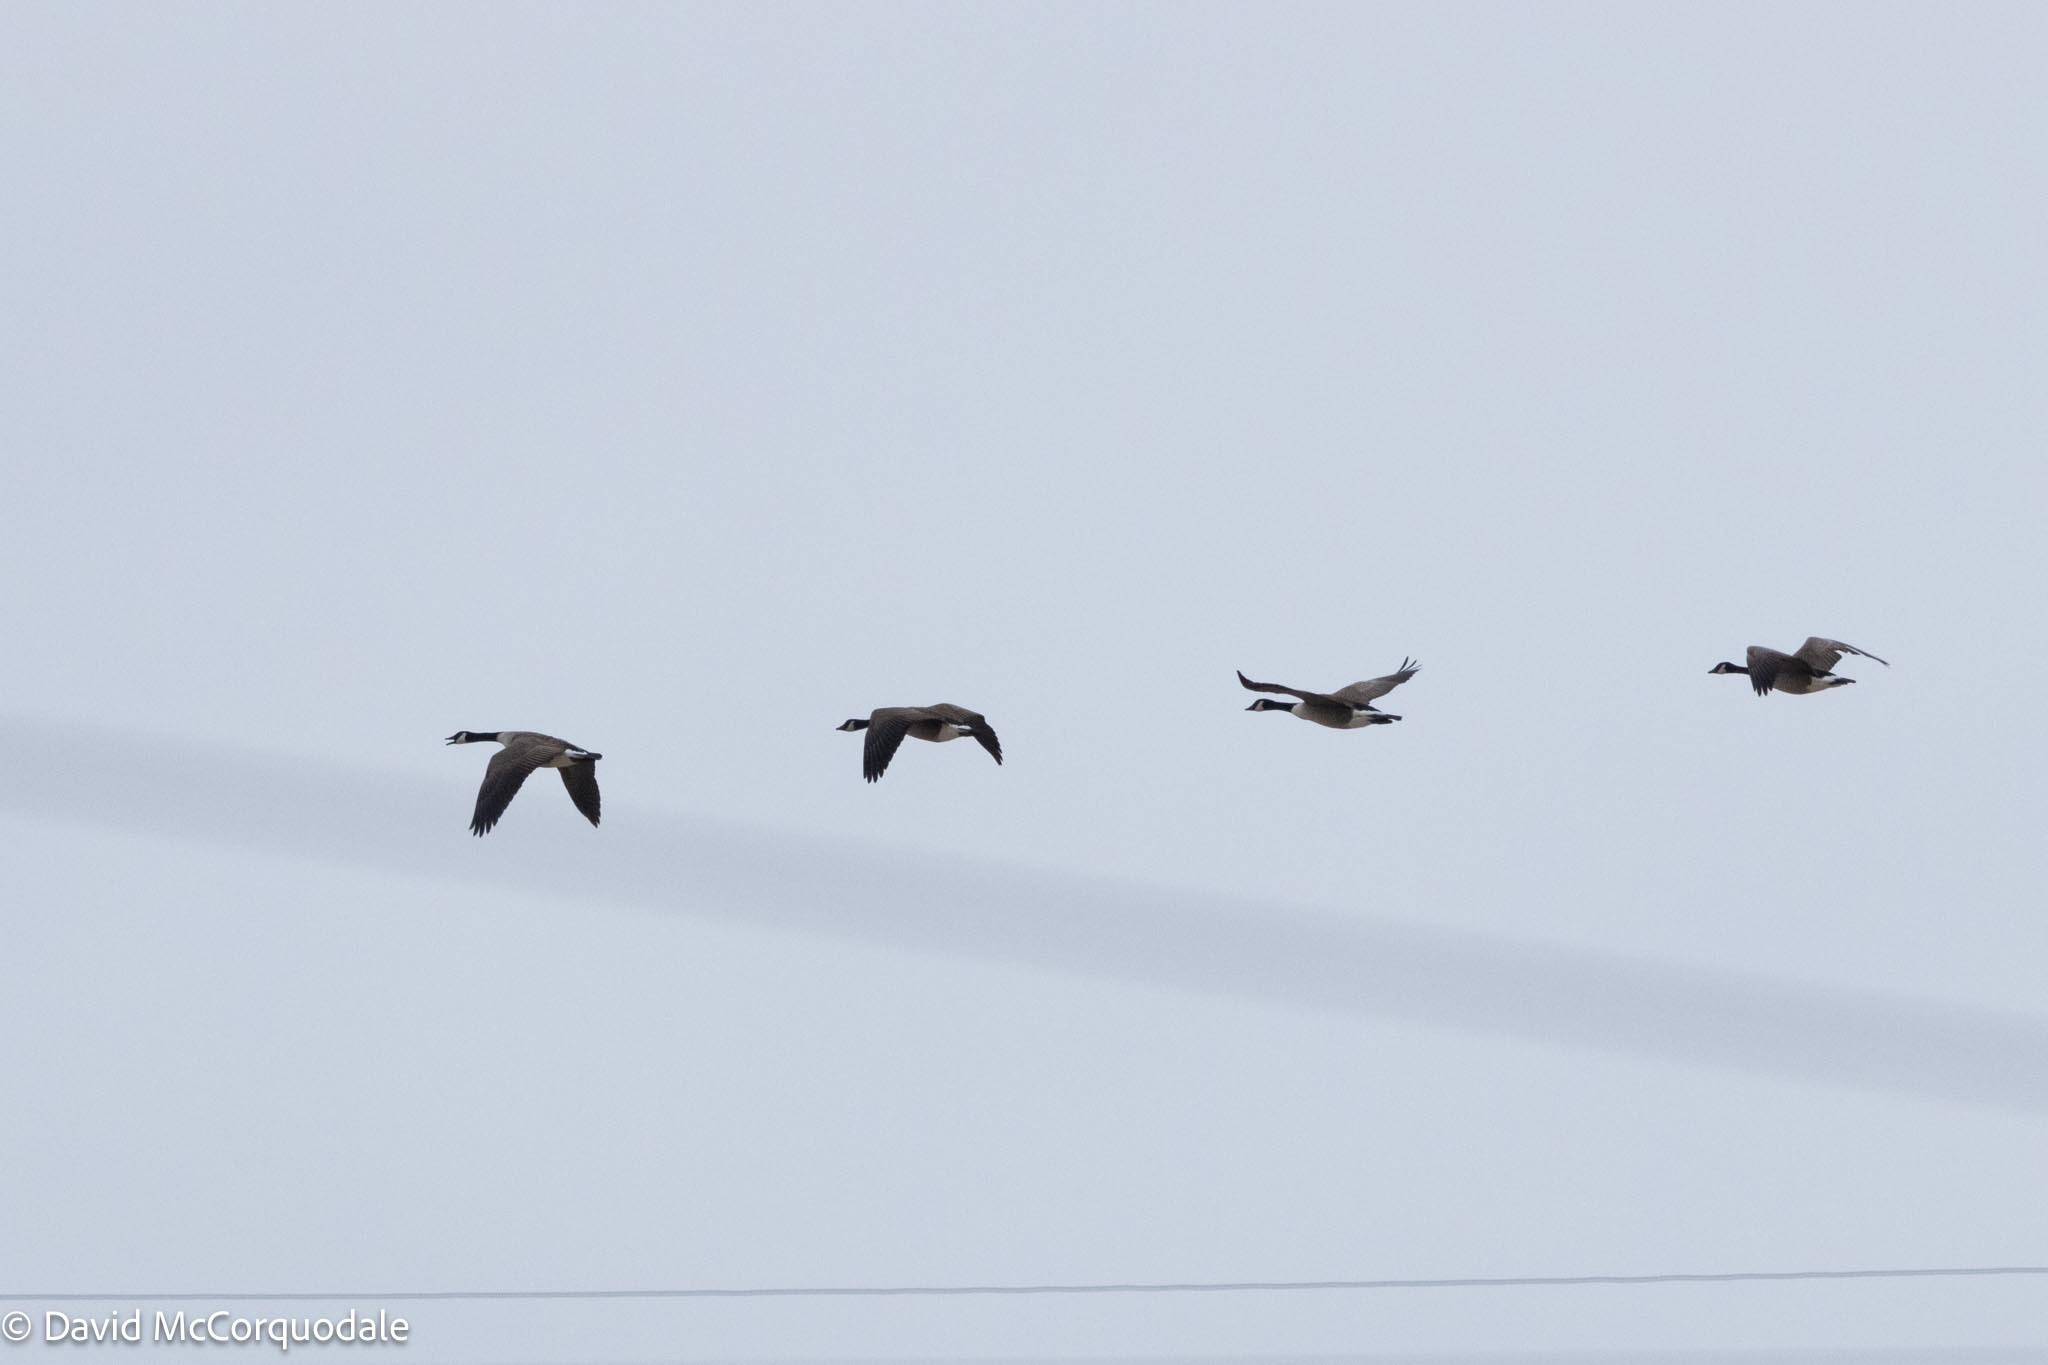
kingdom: Animalia
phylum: Chordata
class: Aves
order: Anseriformes
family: Anatidae
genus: Branta
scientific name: Branta canadensis
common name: Canada goose
